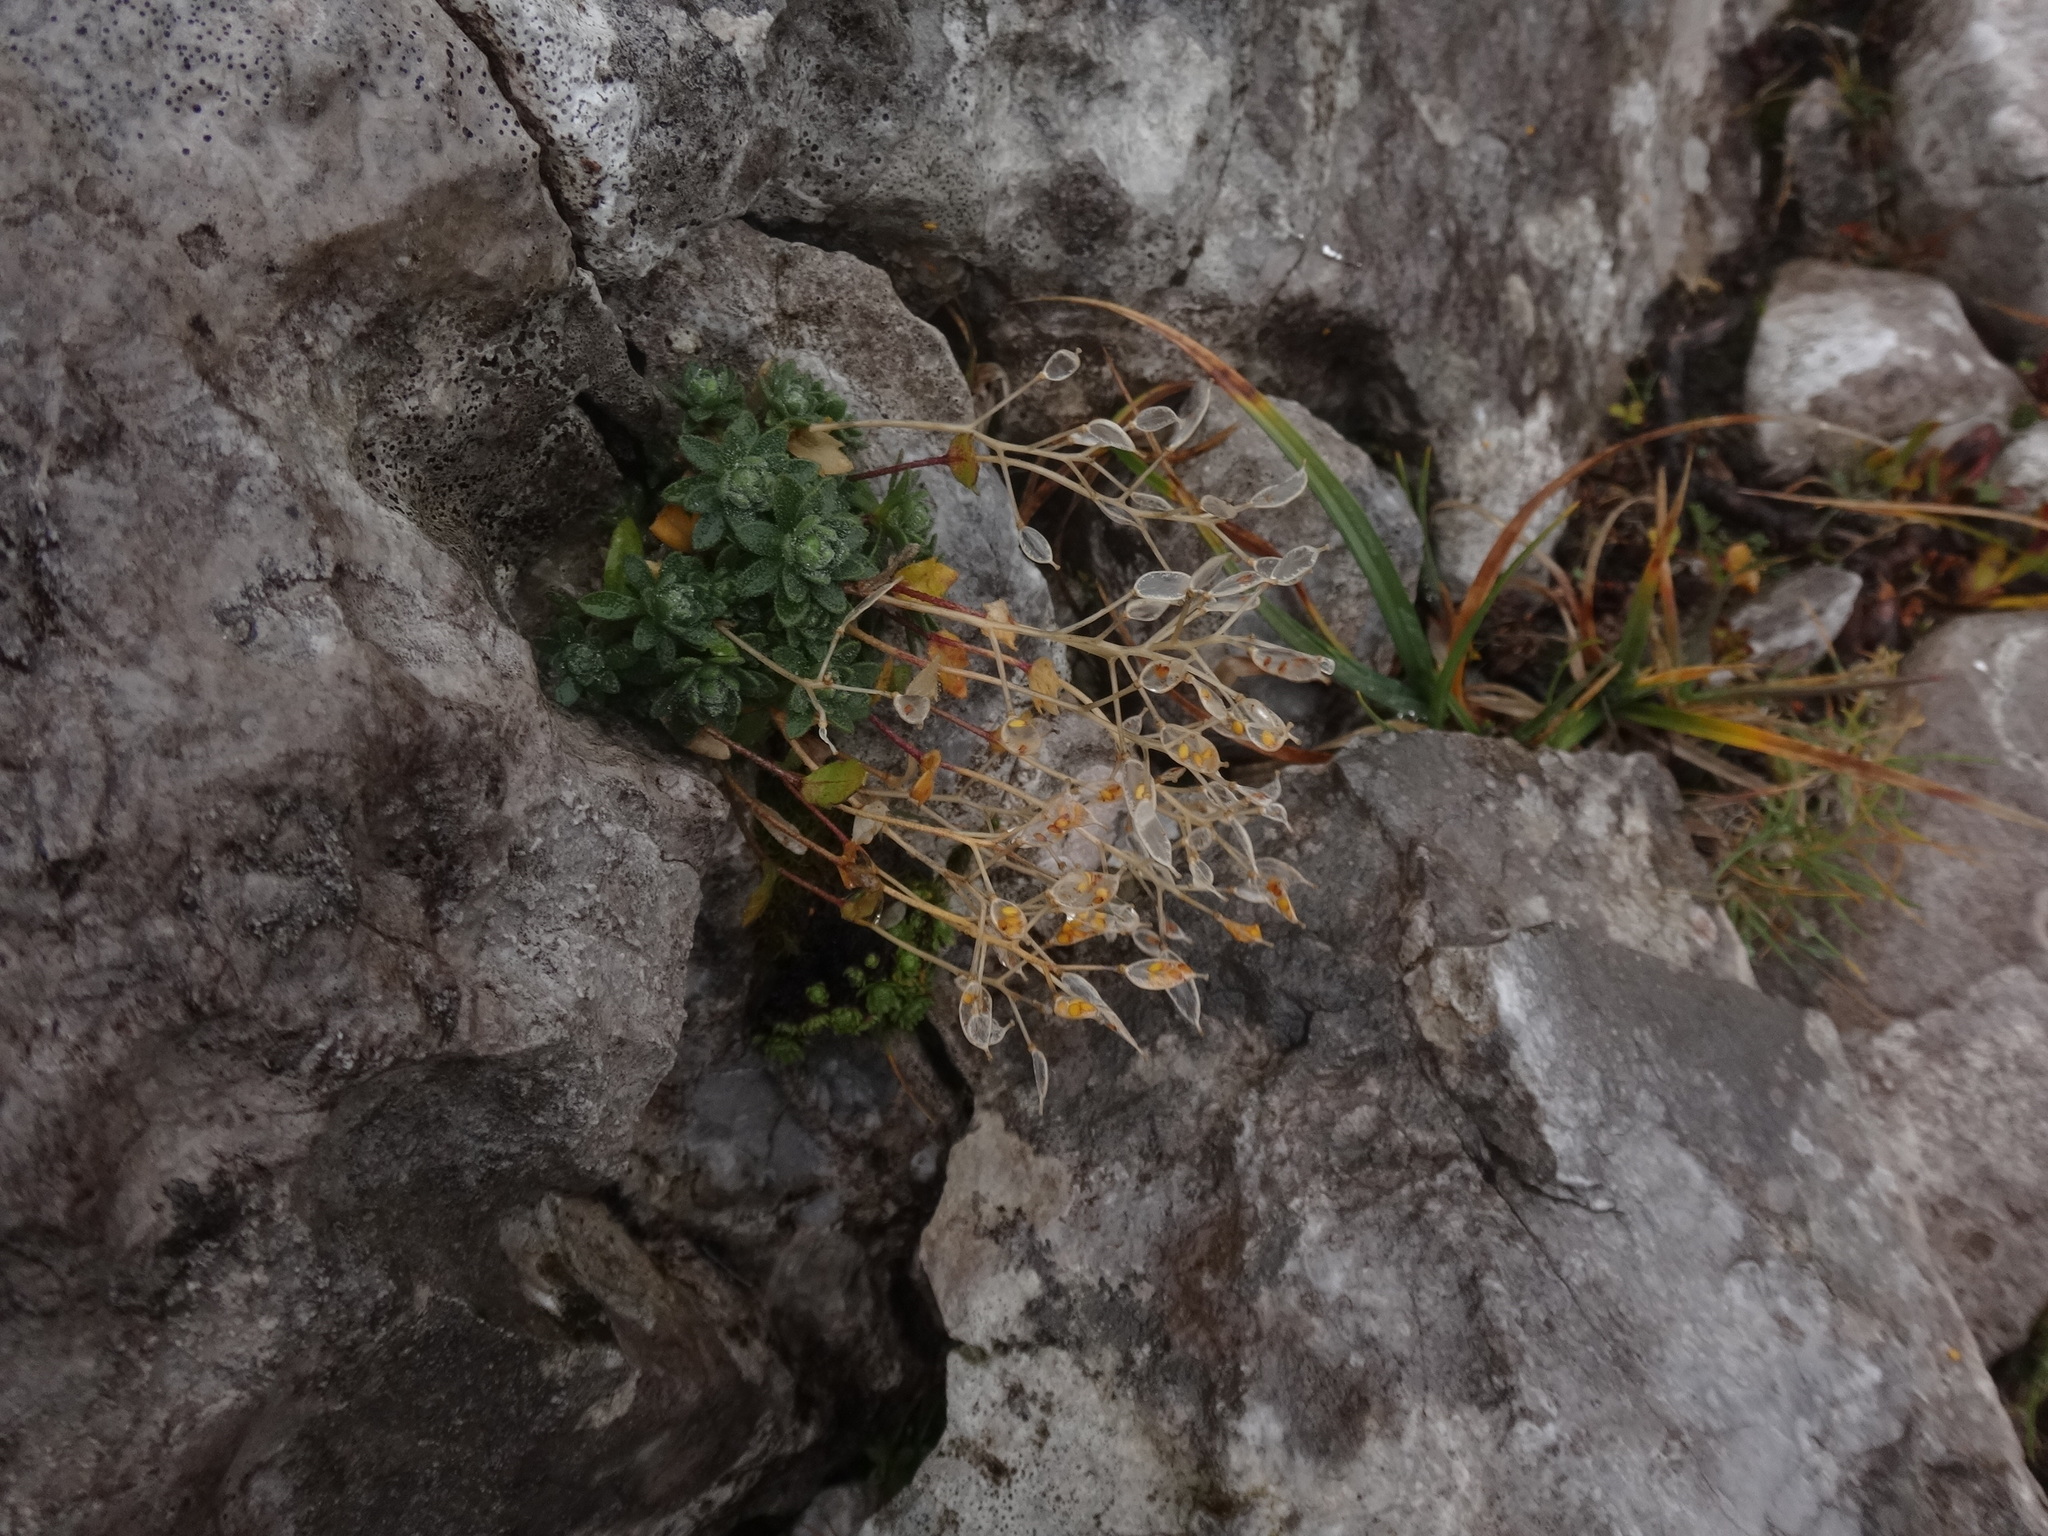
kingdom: Plantae
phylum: Tracheophyta
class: Magnoliopsida
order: Brassicales
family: Brassicaceae
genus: Draba
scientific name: Draba stellata
